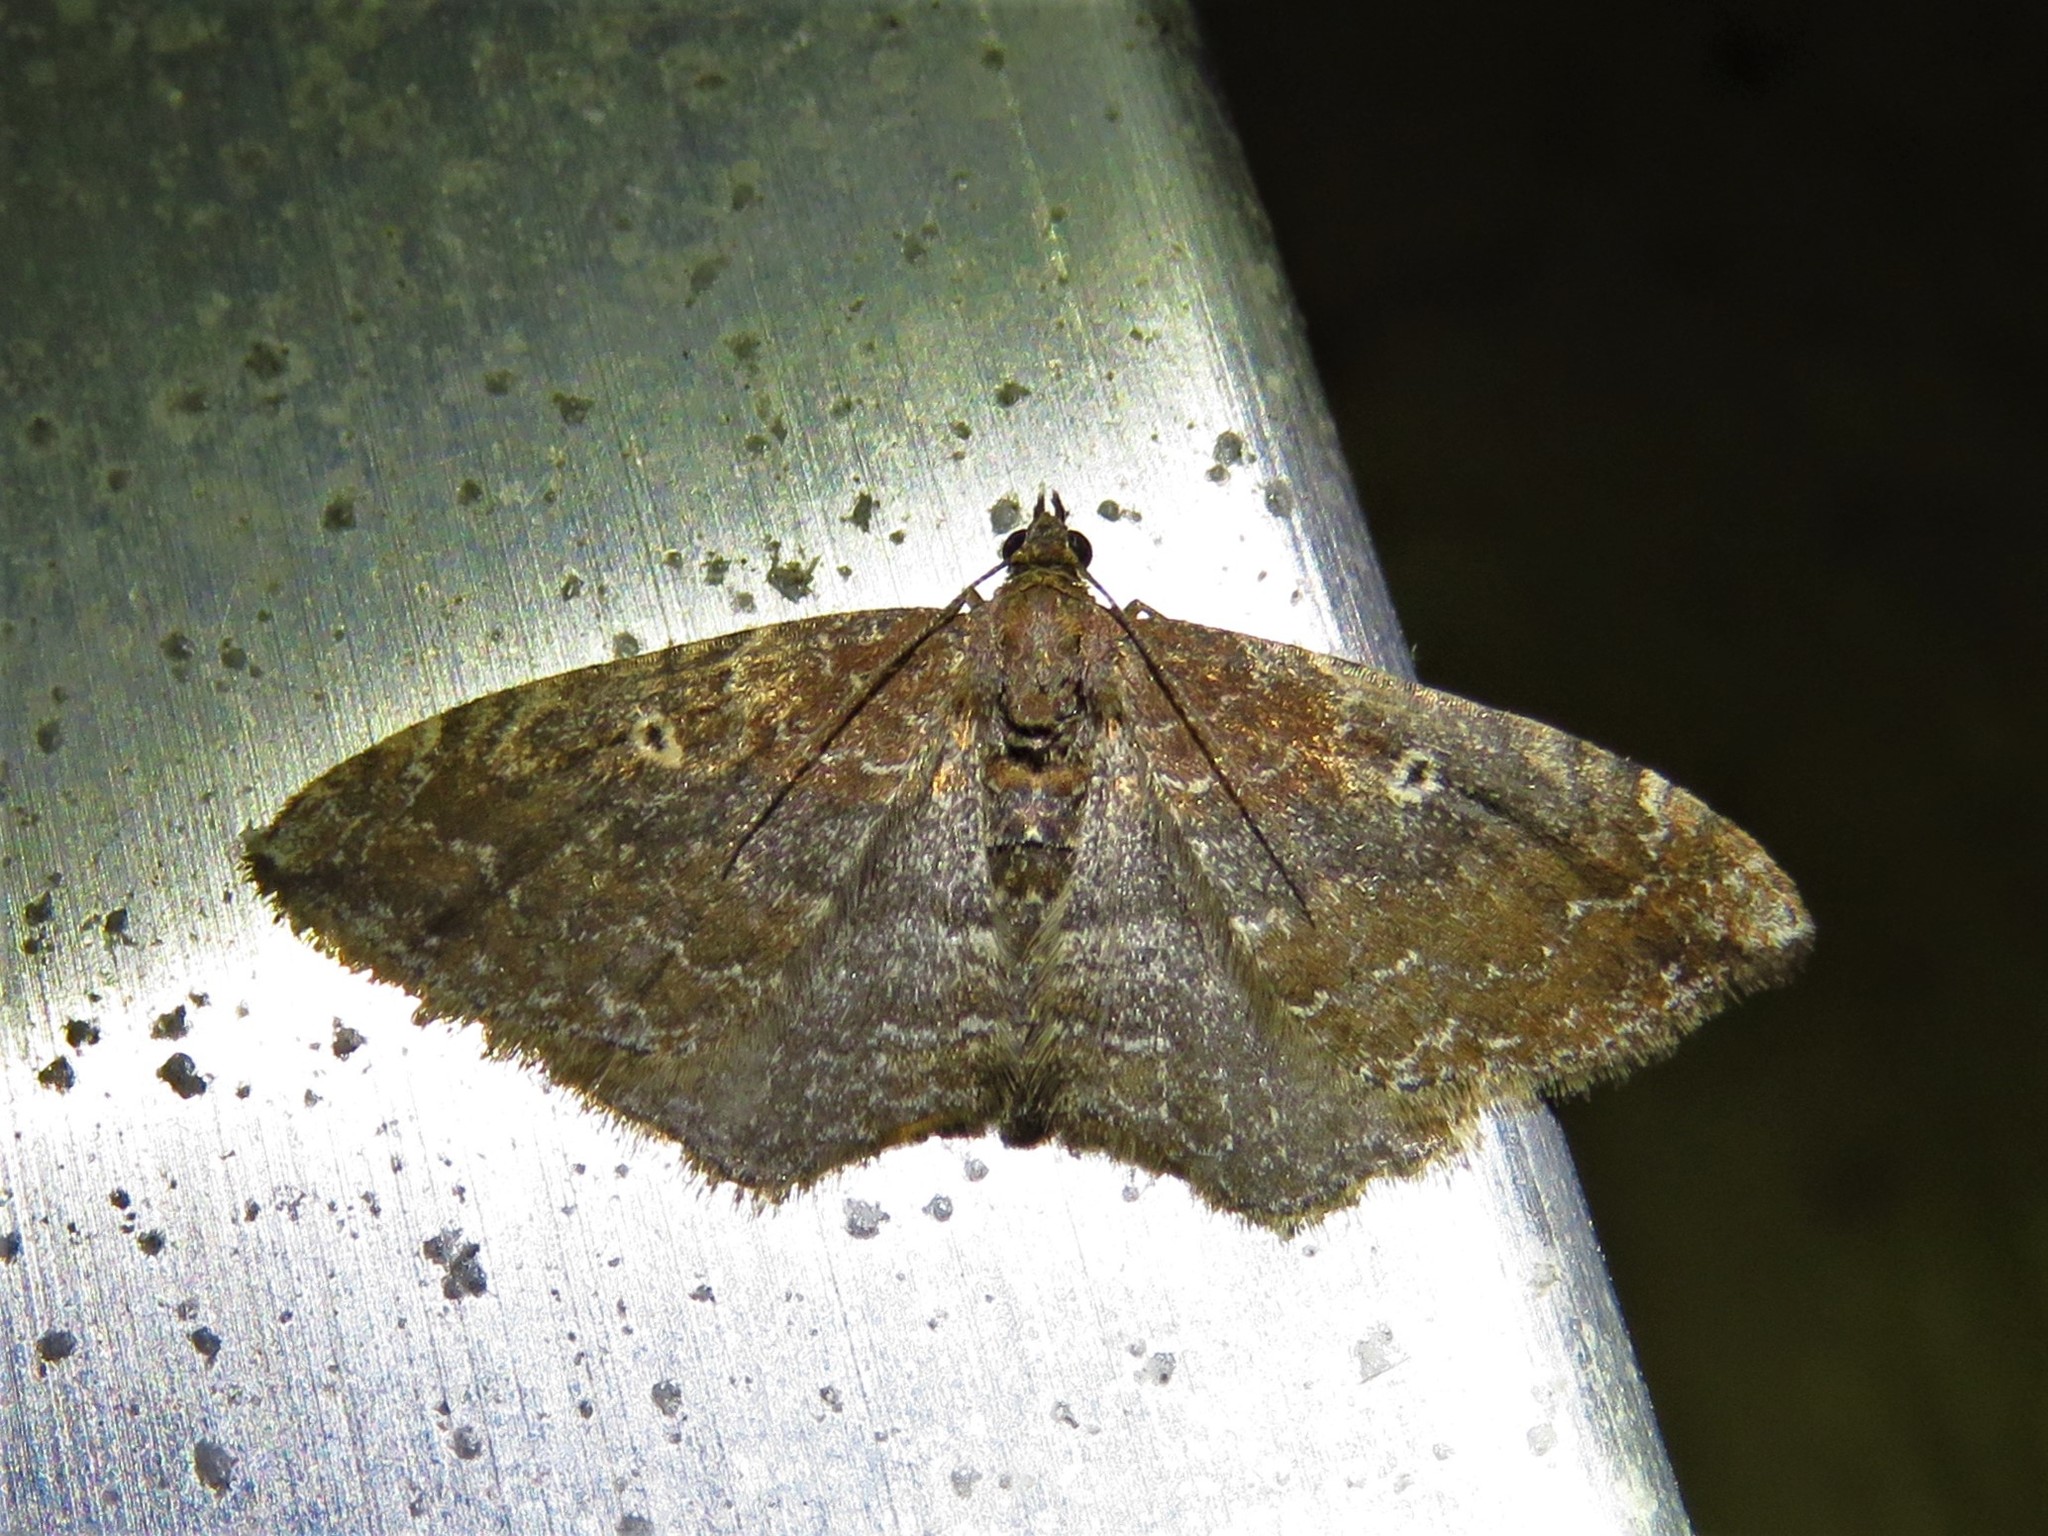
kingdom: Animalia
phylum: Arthropoda
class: Insecta
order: Lepidoptera
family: Geometridae
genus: Orthonama
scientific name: Orthonama obstipata
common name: The gem
